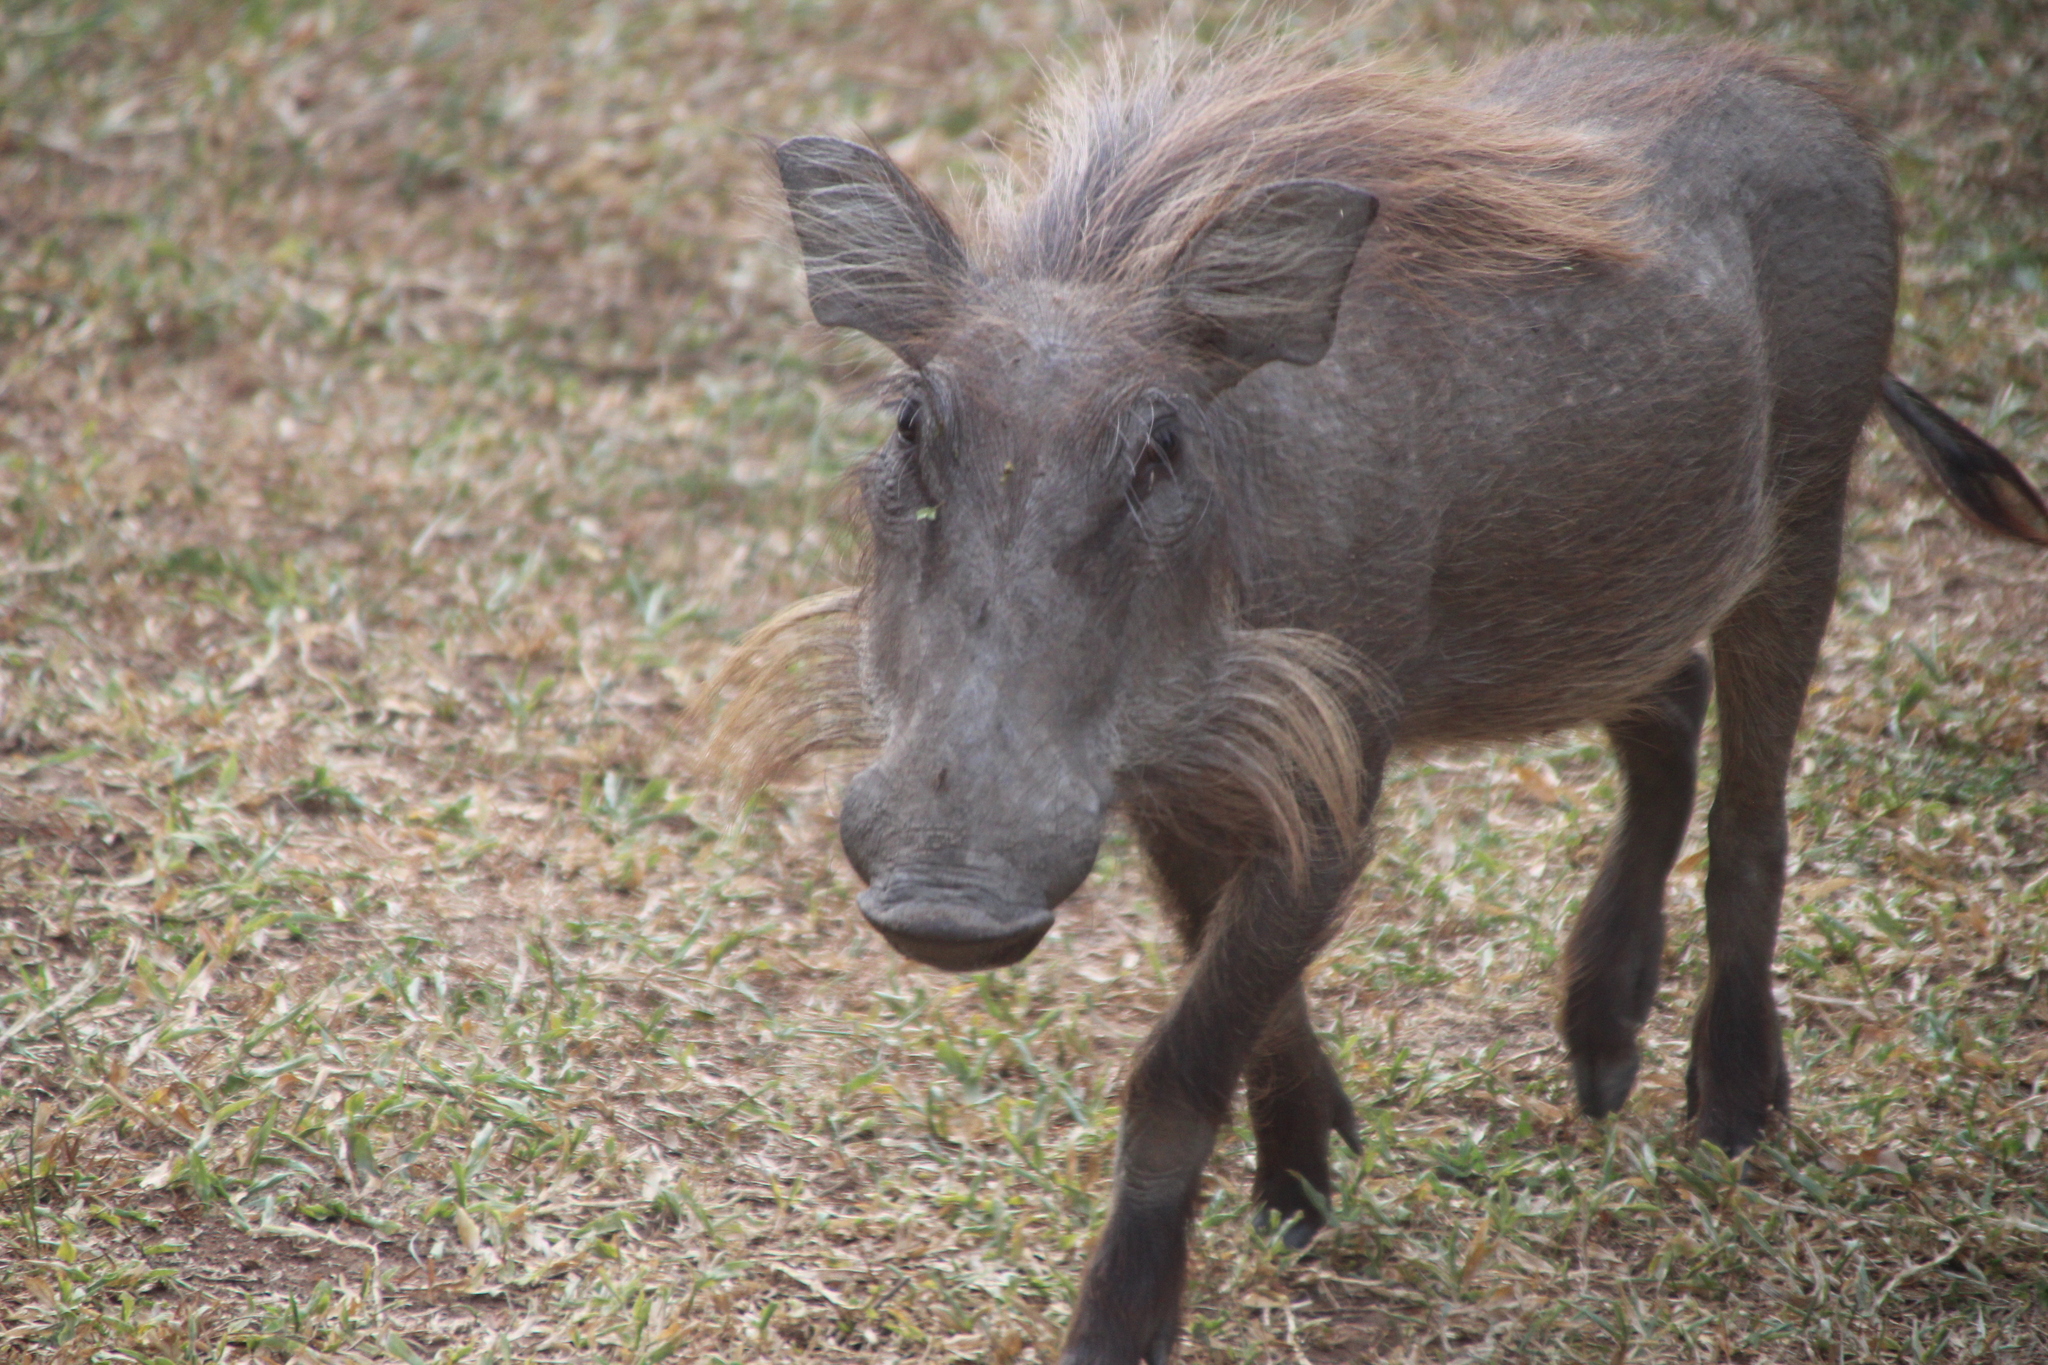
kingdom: Animalia
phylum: Chordata
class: Mammalia
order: Artiodactyla
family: Suidae
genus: Phacochoerus
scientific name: Phacochoerus africanus
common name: Common warthog
